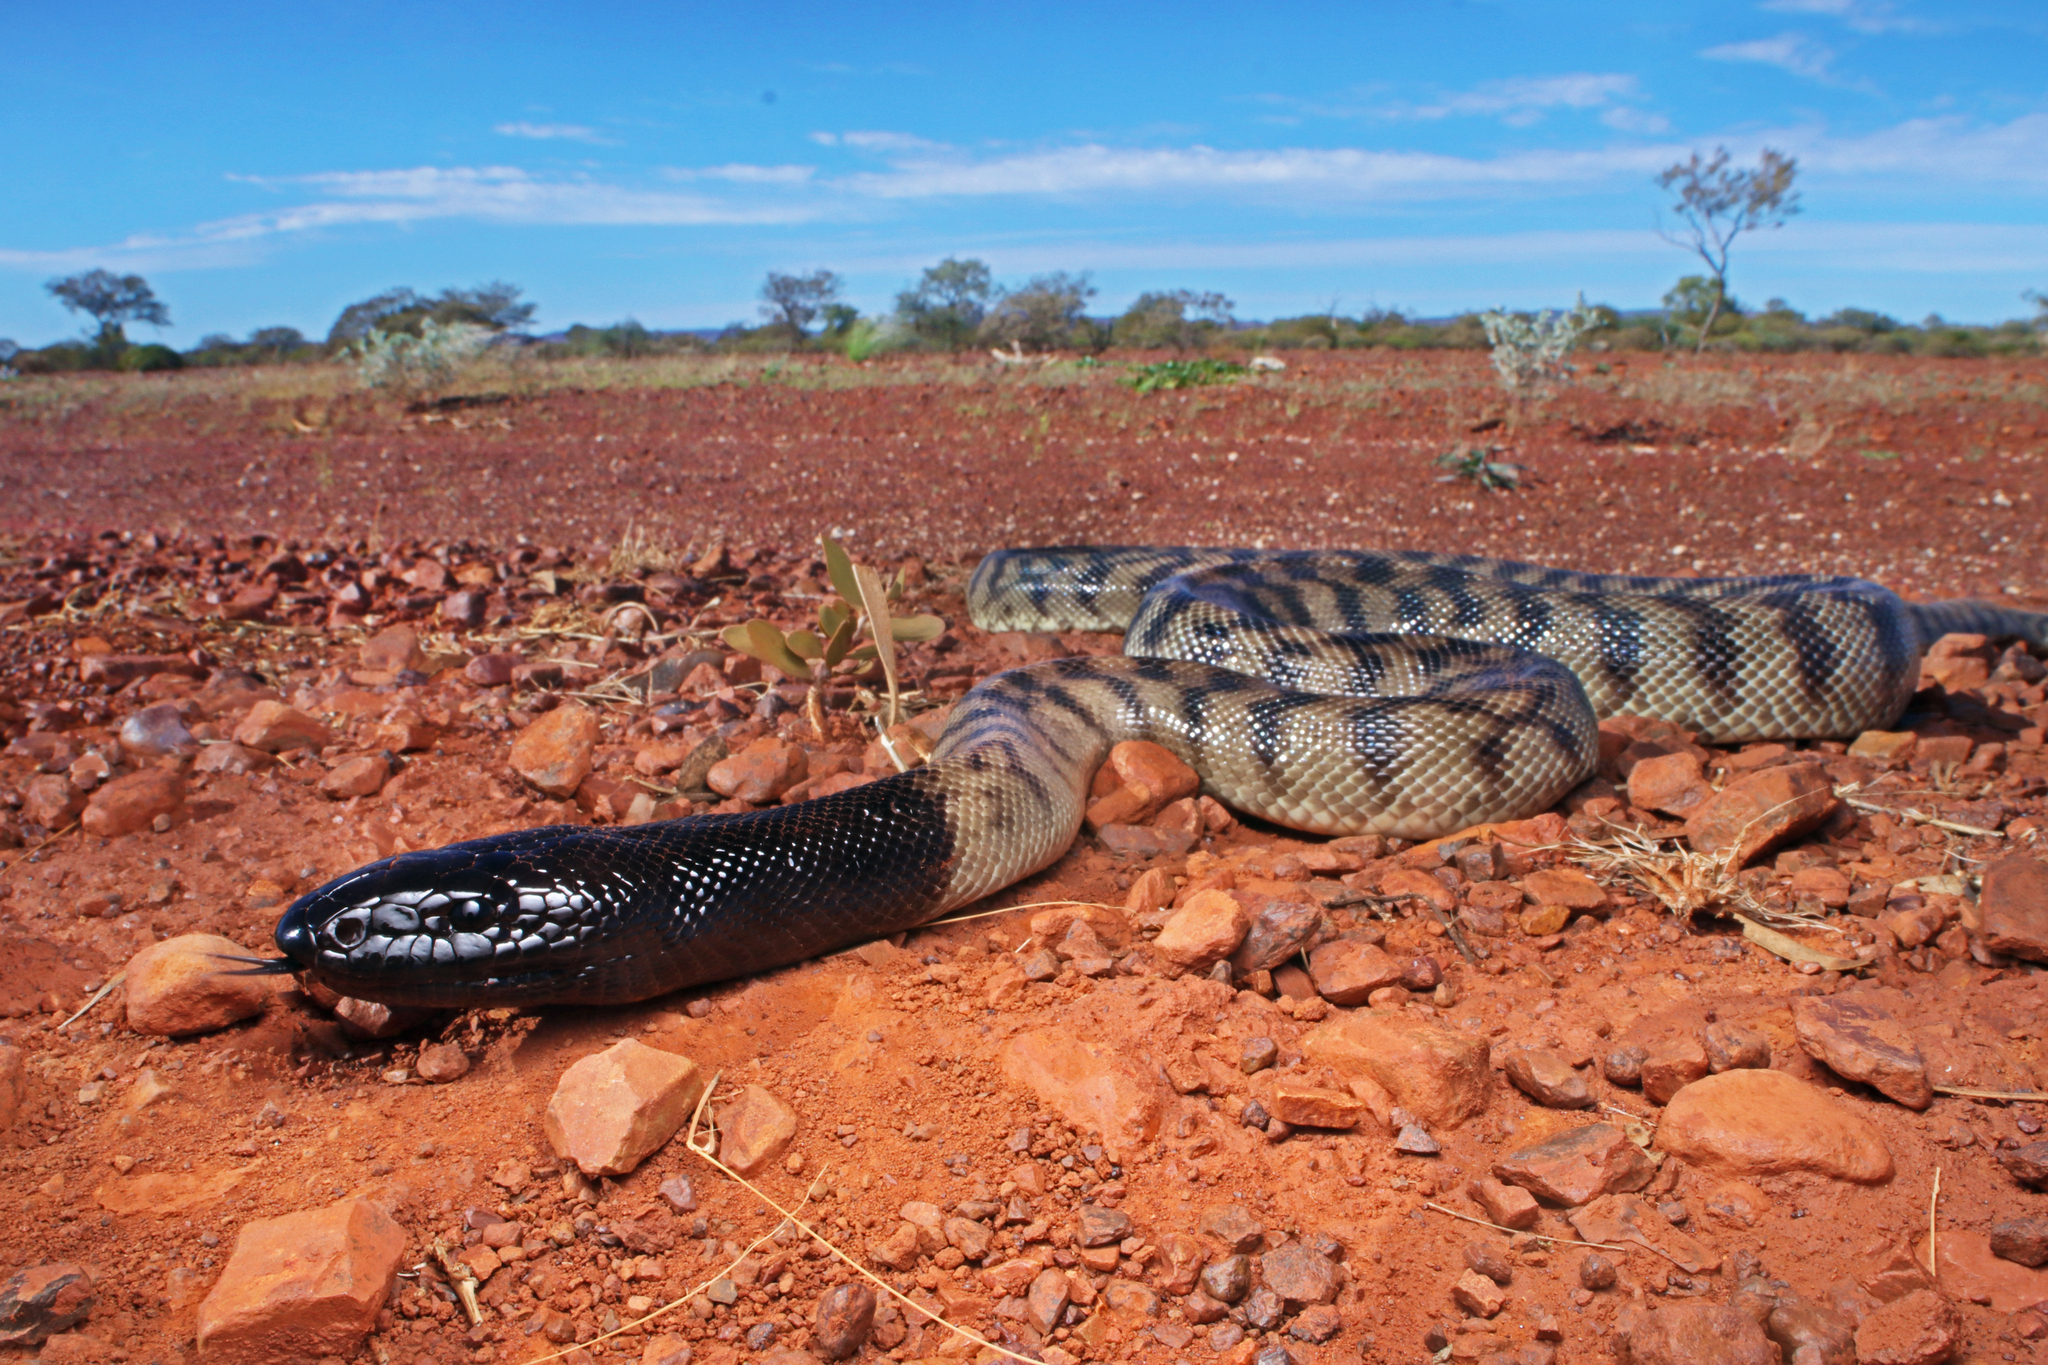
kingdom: Animalia
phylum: Chordata
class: Squamata
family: Pythonidae
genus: Aspidites
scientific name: Aspidites melanocephalus
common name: Black-headed python
